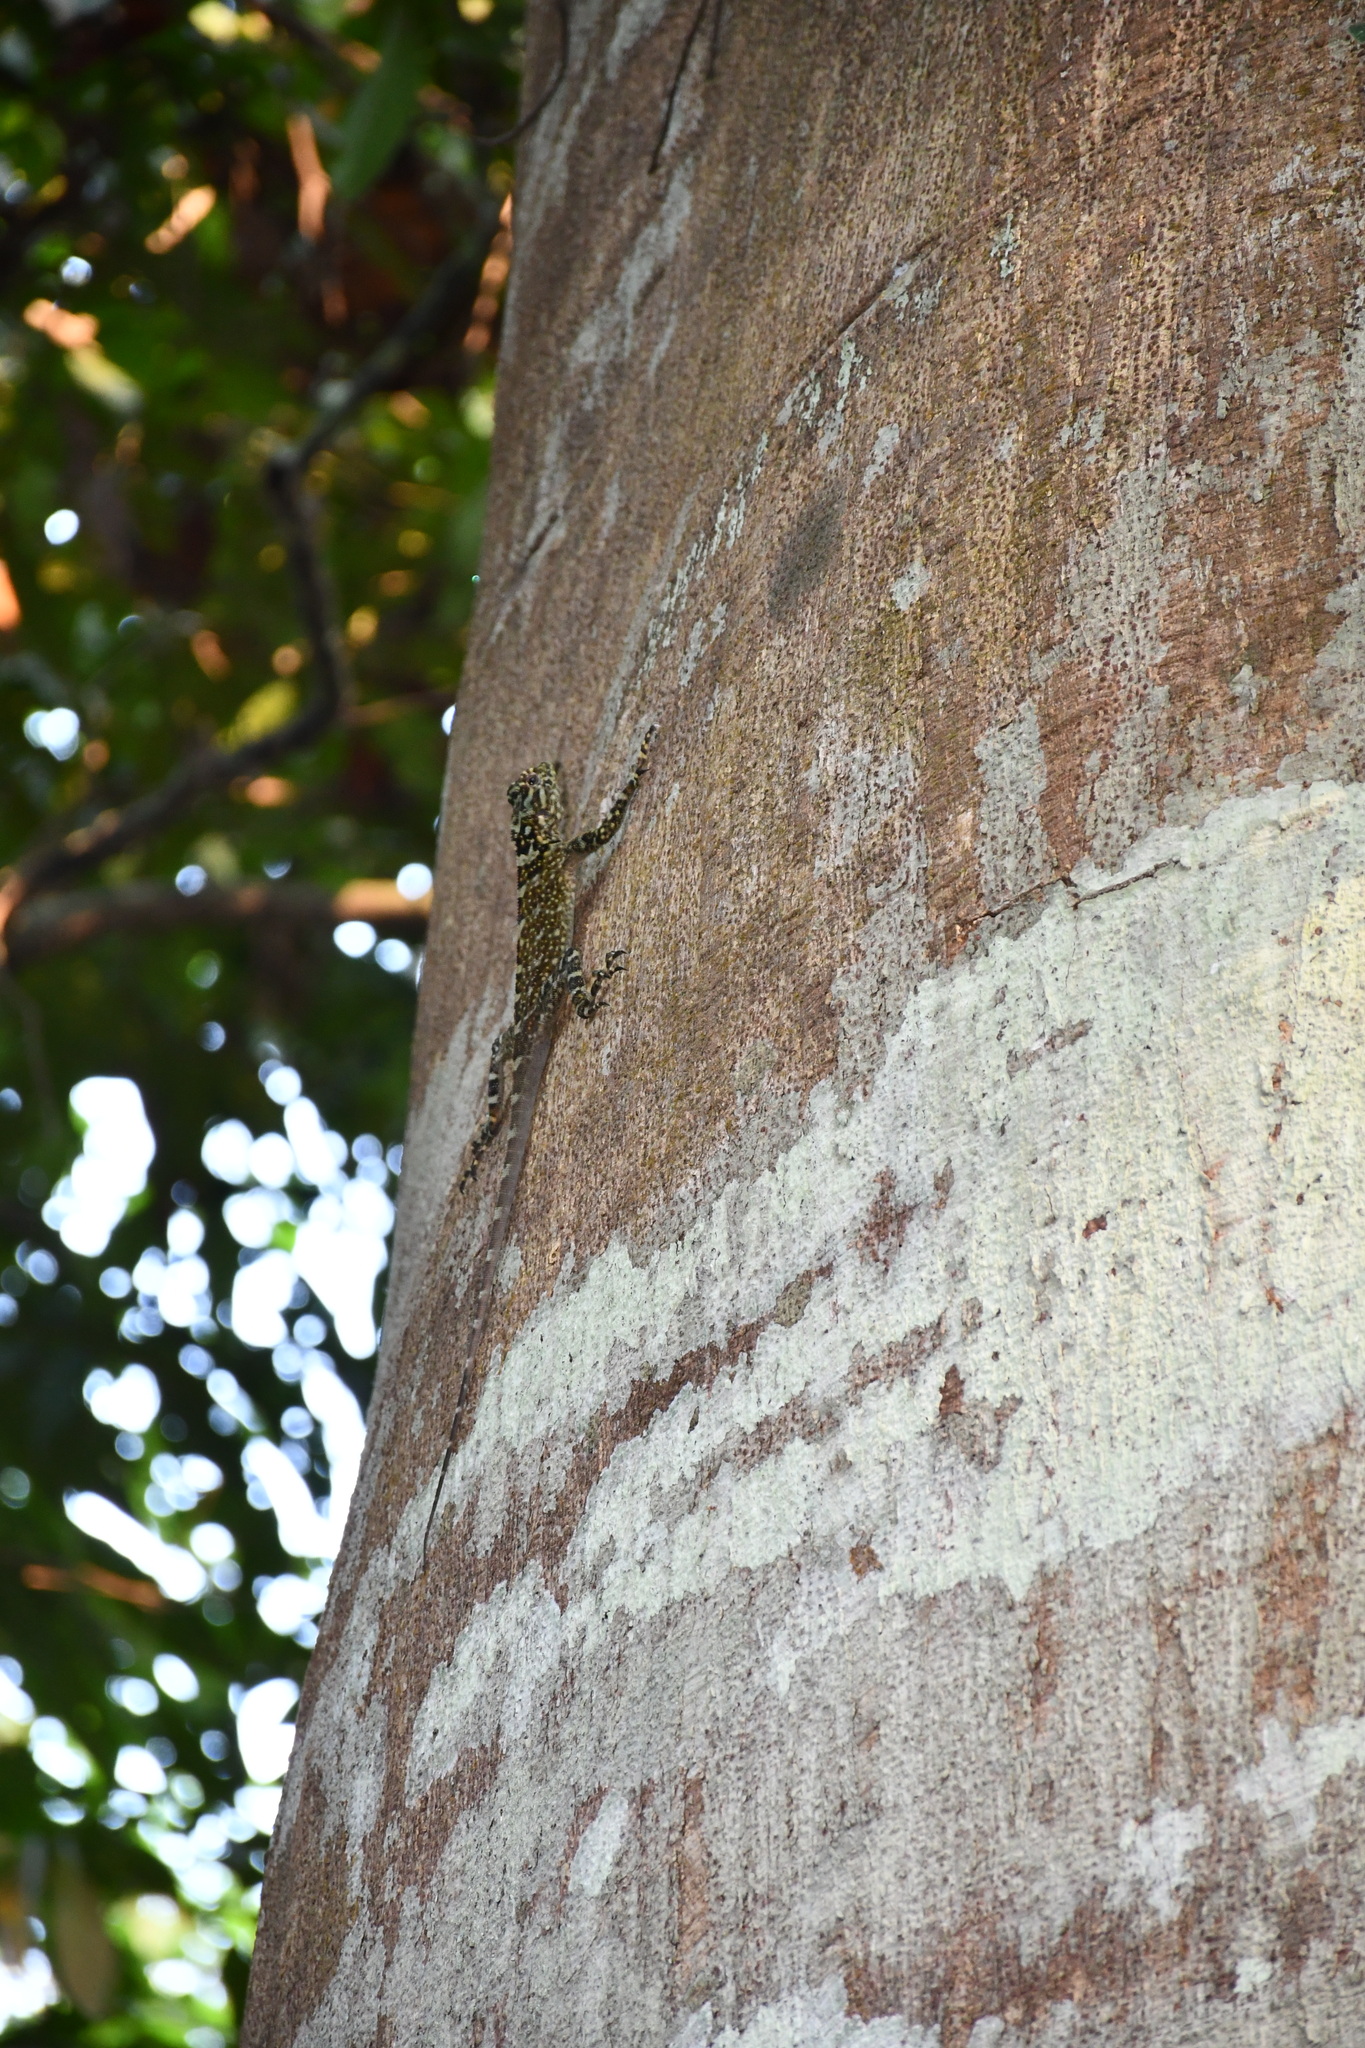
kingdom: Animalia
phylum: Chordata
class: Squamata
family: Tropiduridae
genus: Plica
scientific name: Plica plica
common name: Tree runner
